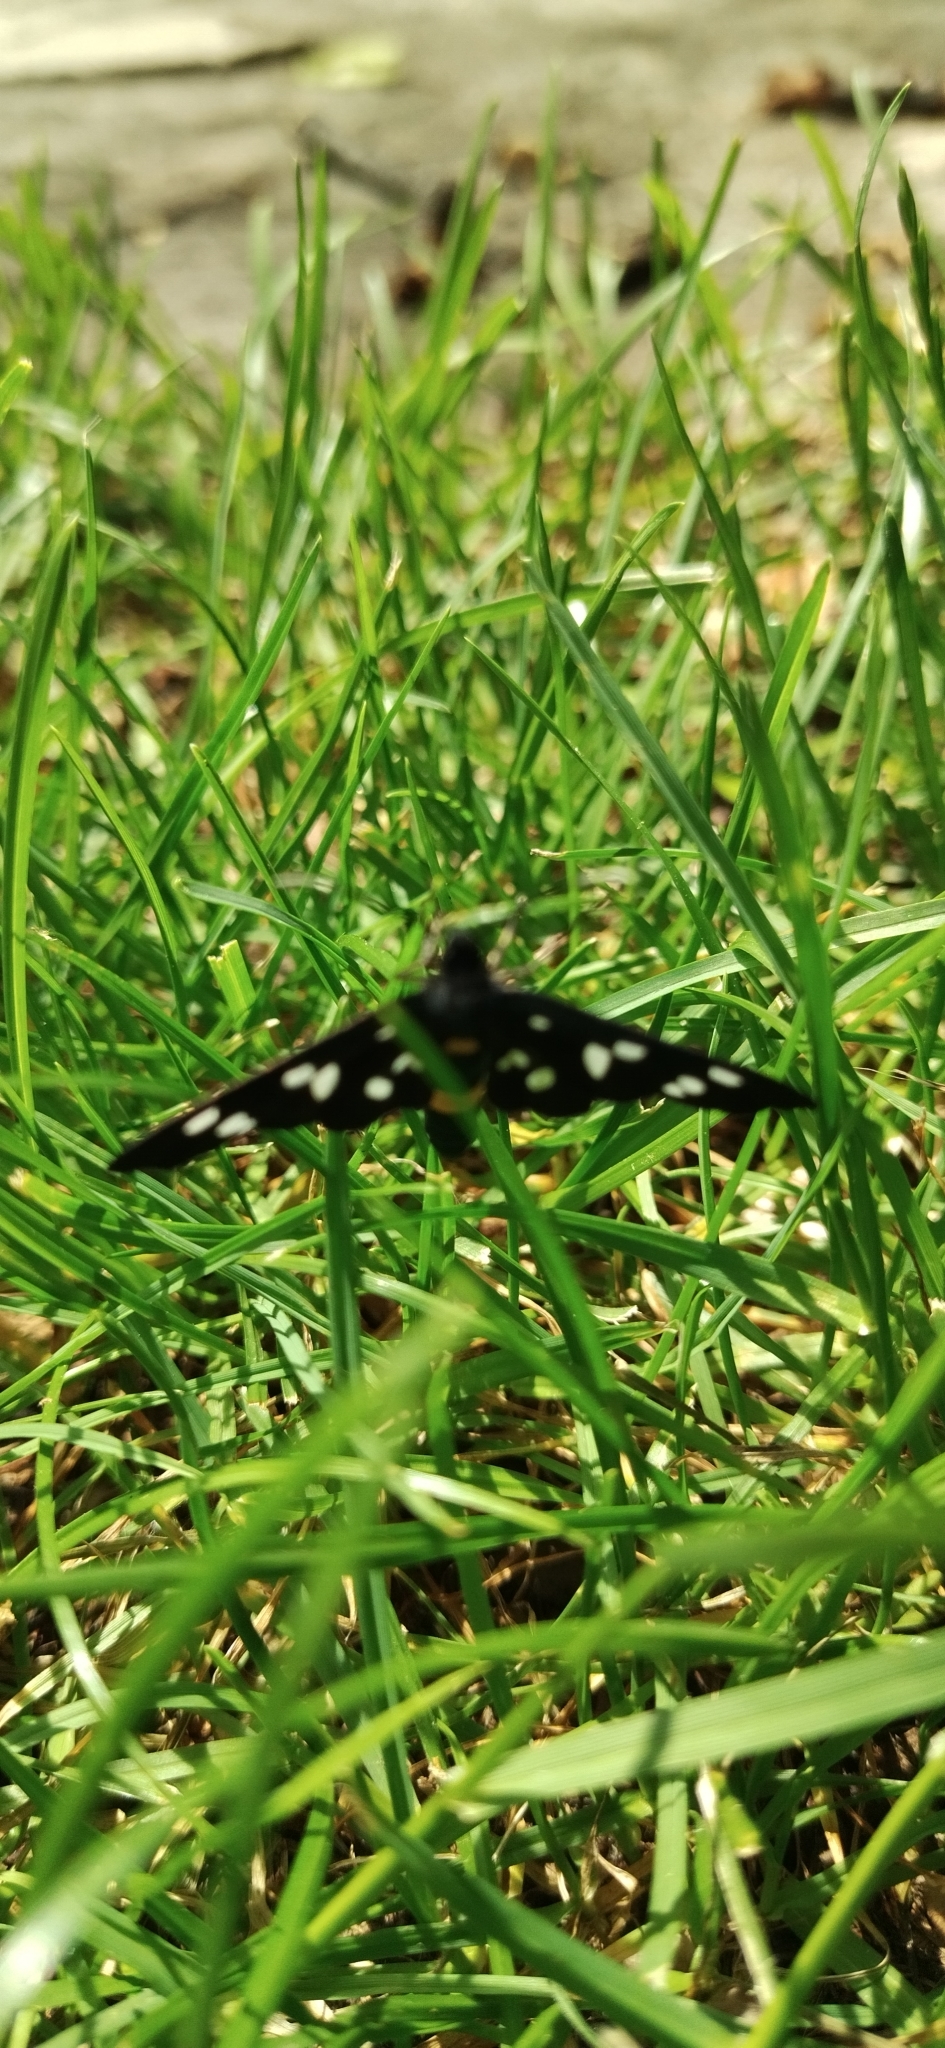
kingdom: Animalia
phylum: Arthropoda
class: Insecta
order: Lepidoptera
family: Erebidae
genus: Amata
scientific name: Amata phegea
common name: Nine-spotted
